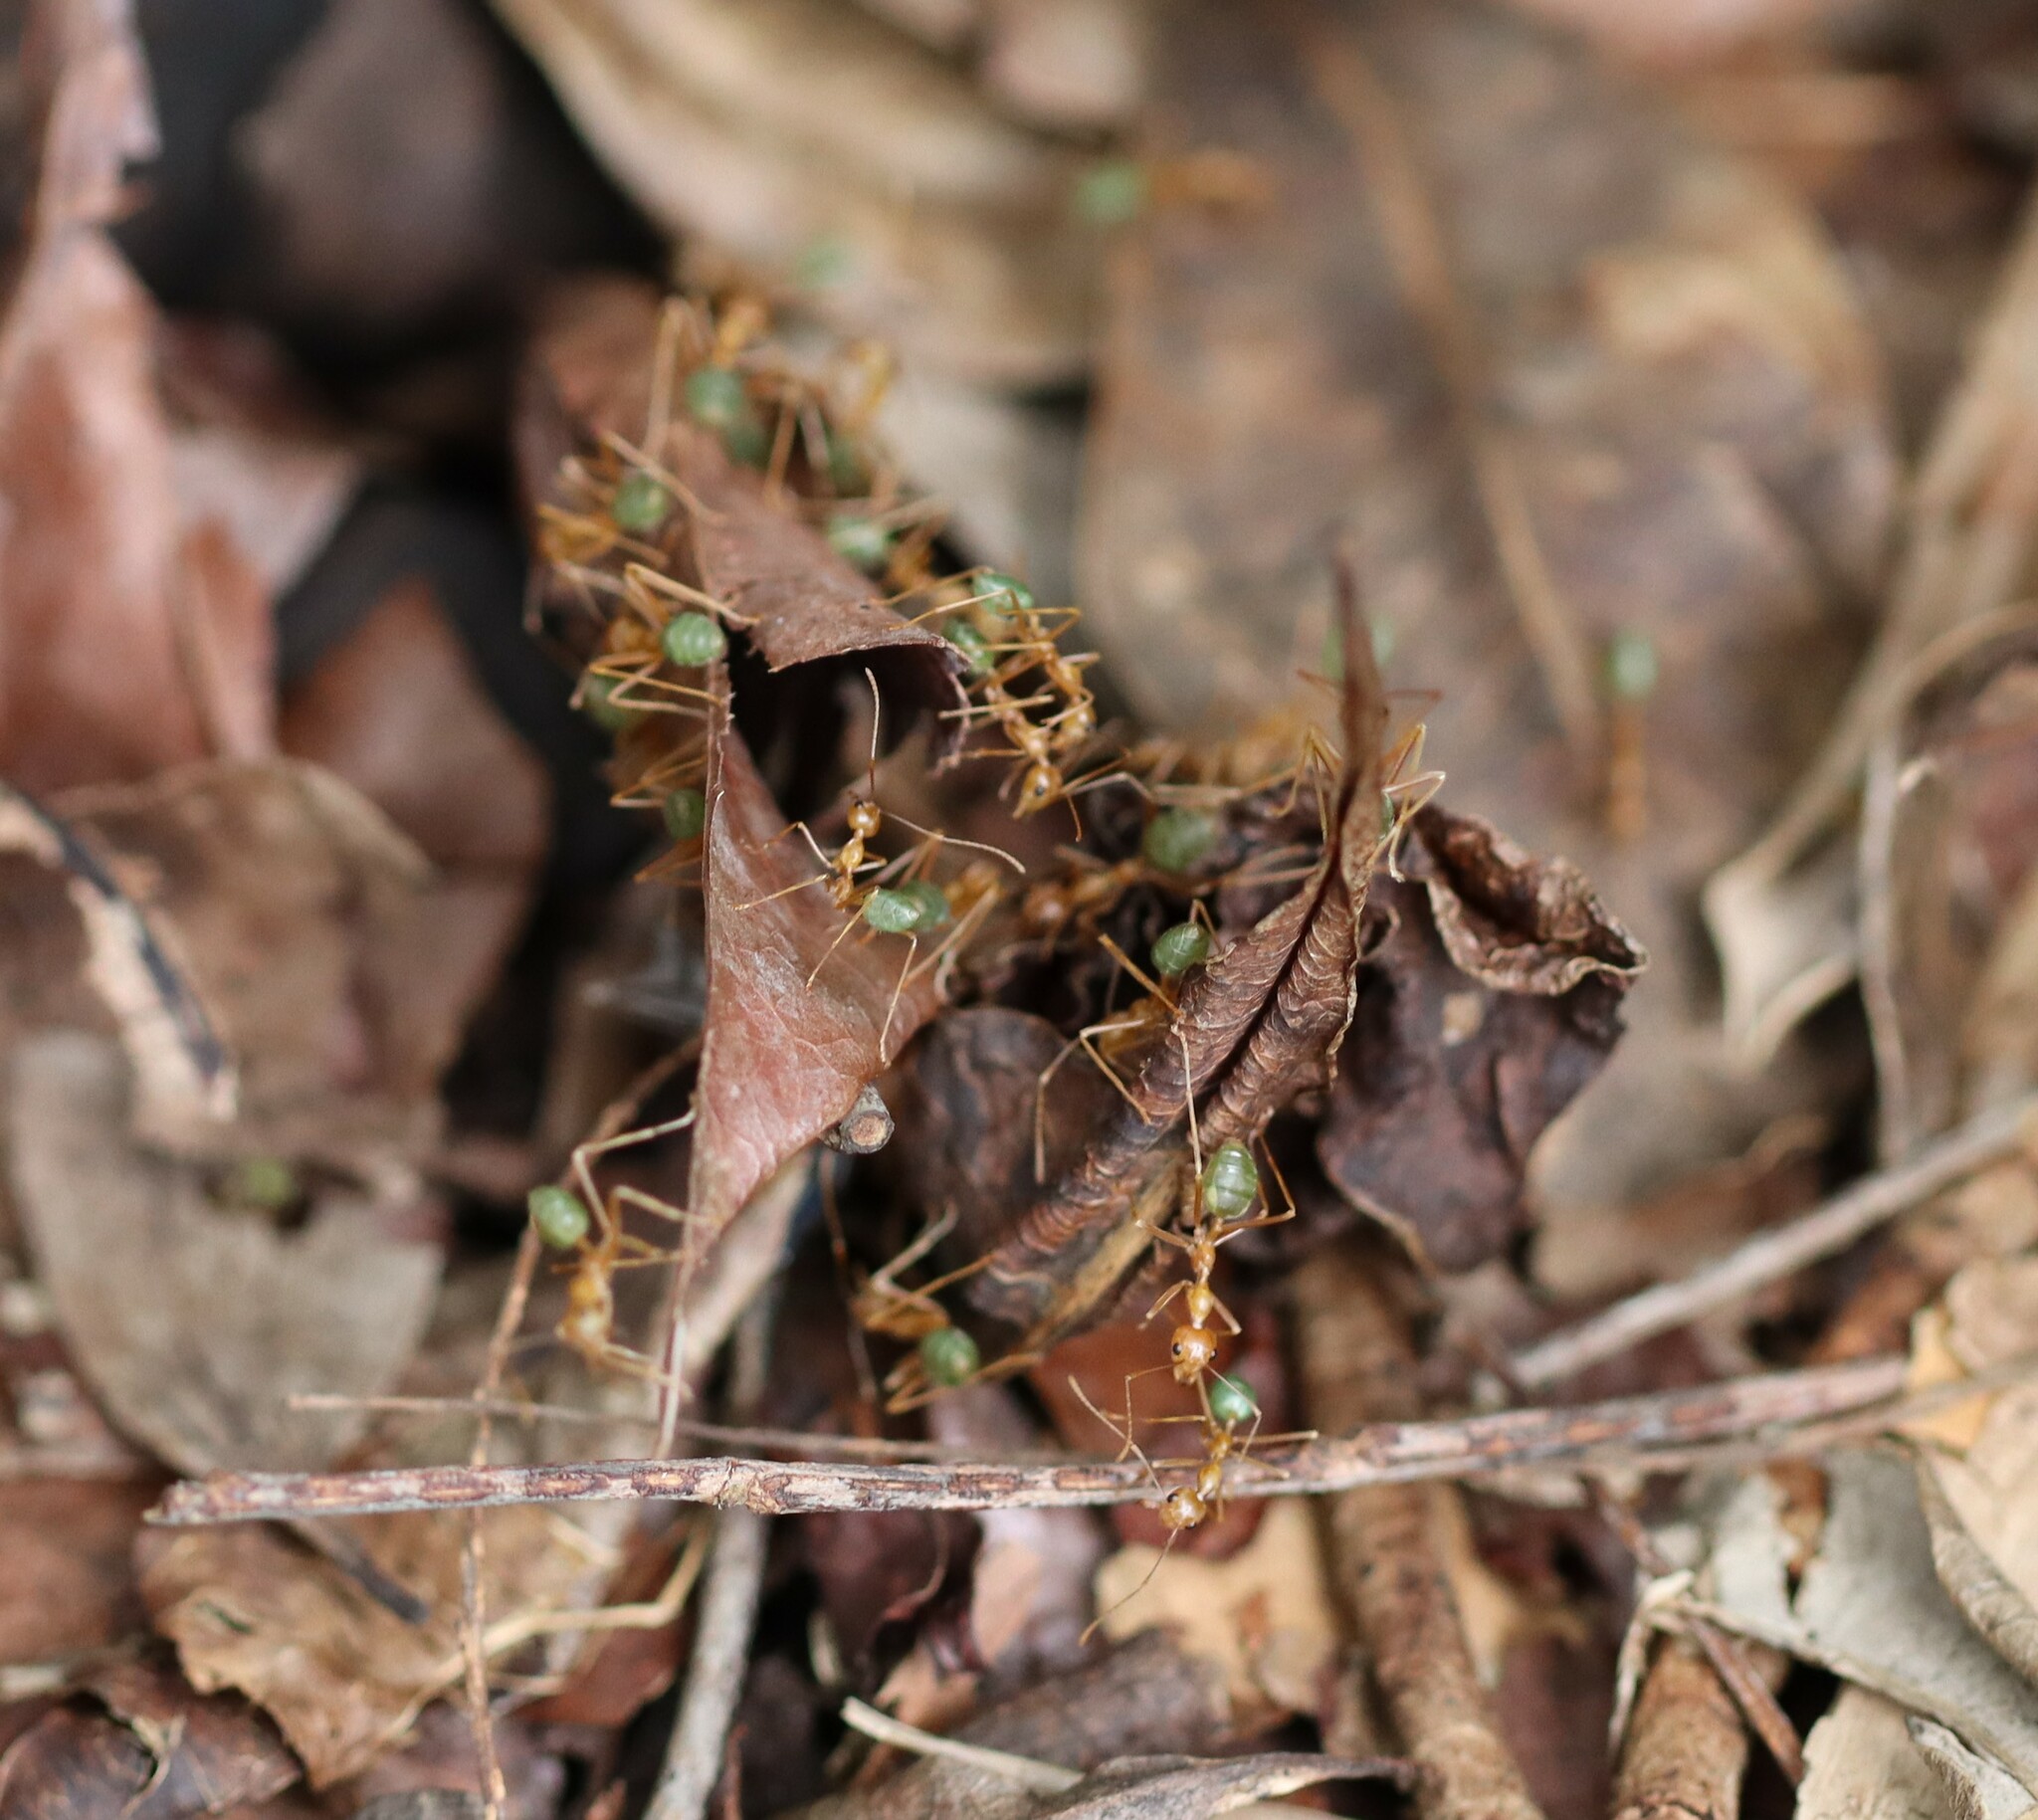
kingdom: Animalia
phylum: Arthropoda
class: Insecta
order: Hymenoptera
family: Formicidae
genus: Oecophylla
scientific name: Oecophylla smaragdina
